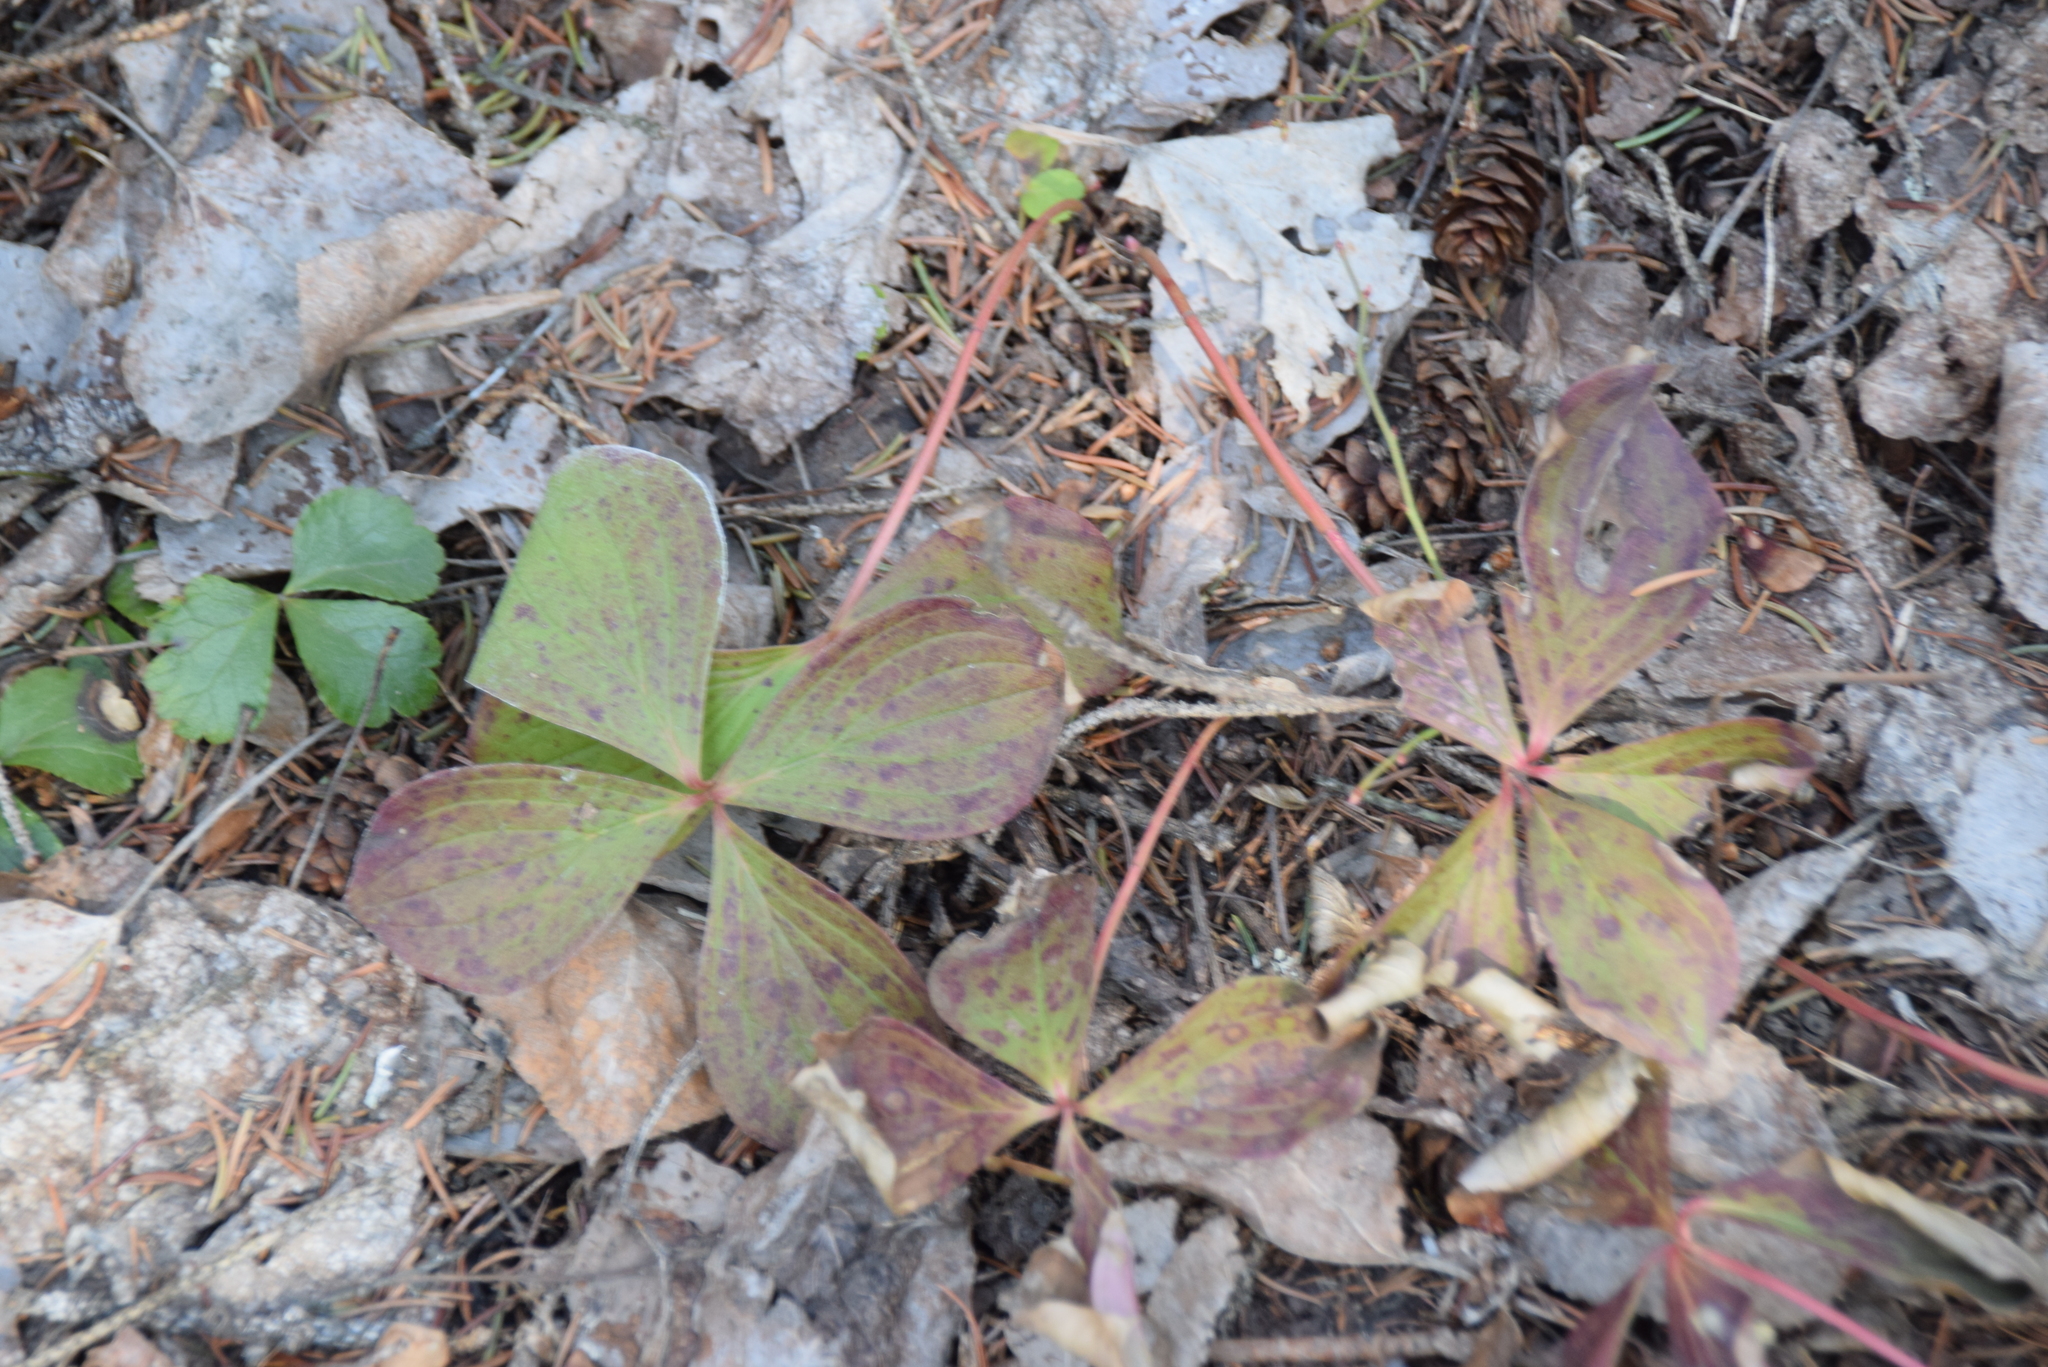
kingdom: Plantae
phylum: Tracheophyta
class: Magnoliopsida
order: Cornales
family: Cornaceae
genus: Cornus
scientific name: Cornus canadensis
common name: Creeping dogwood
